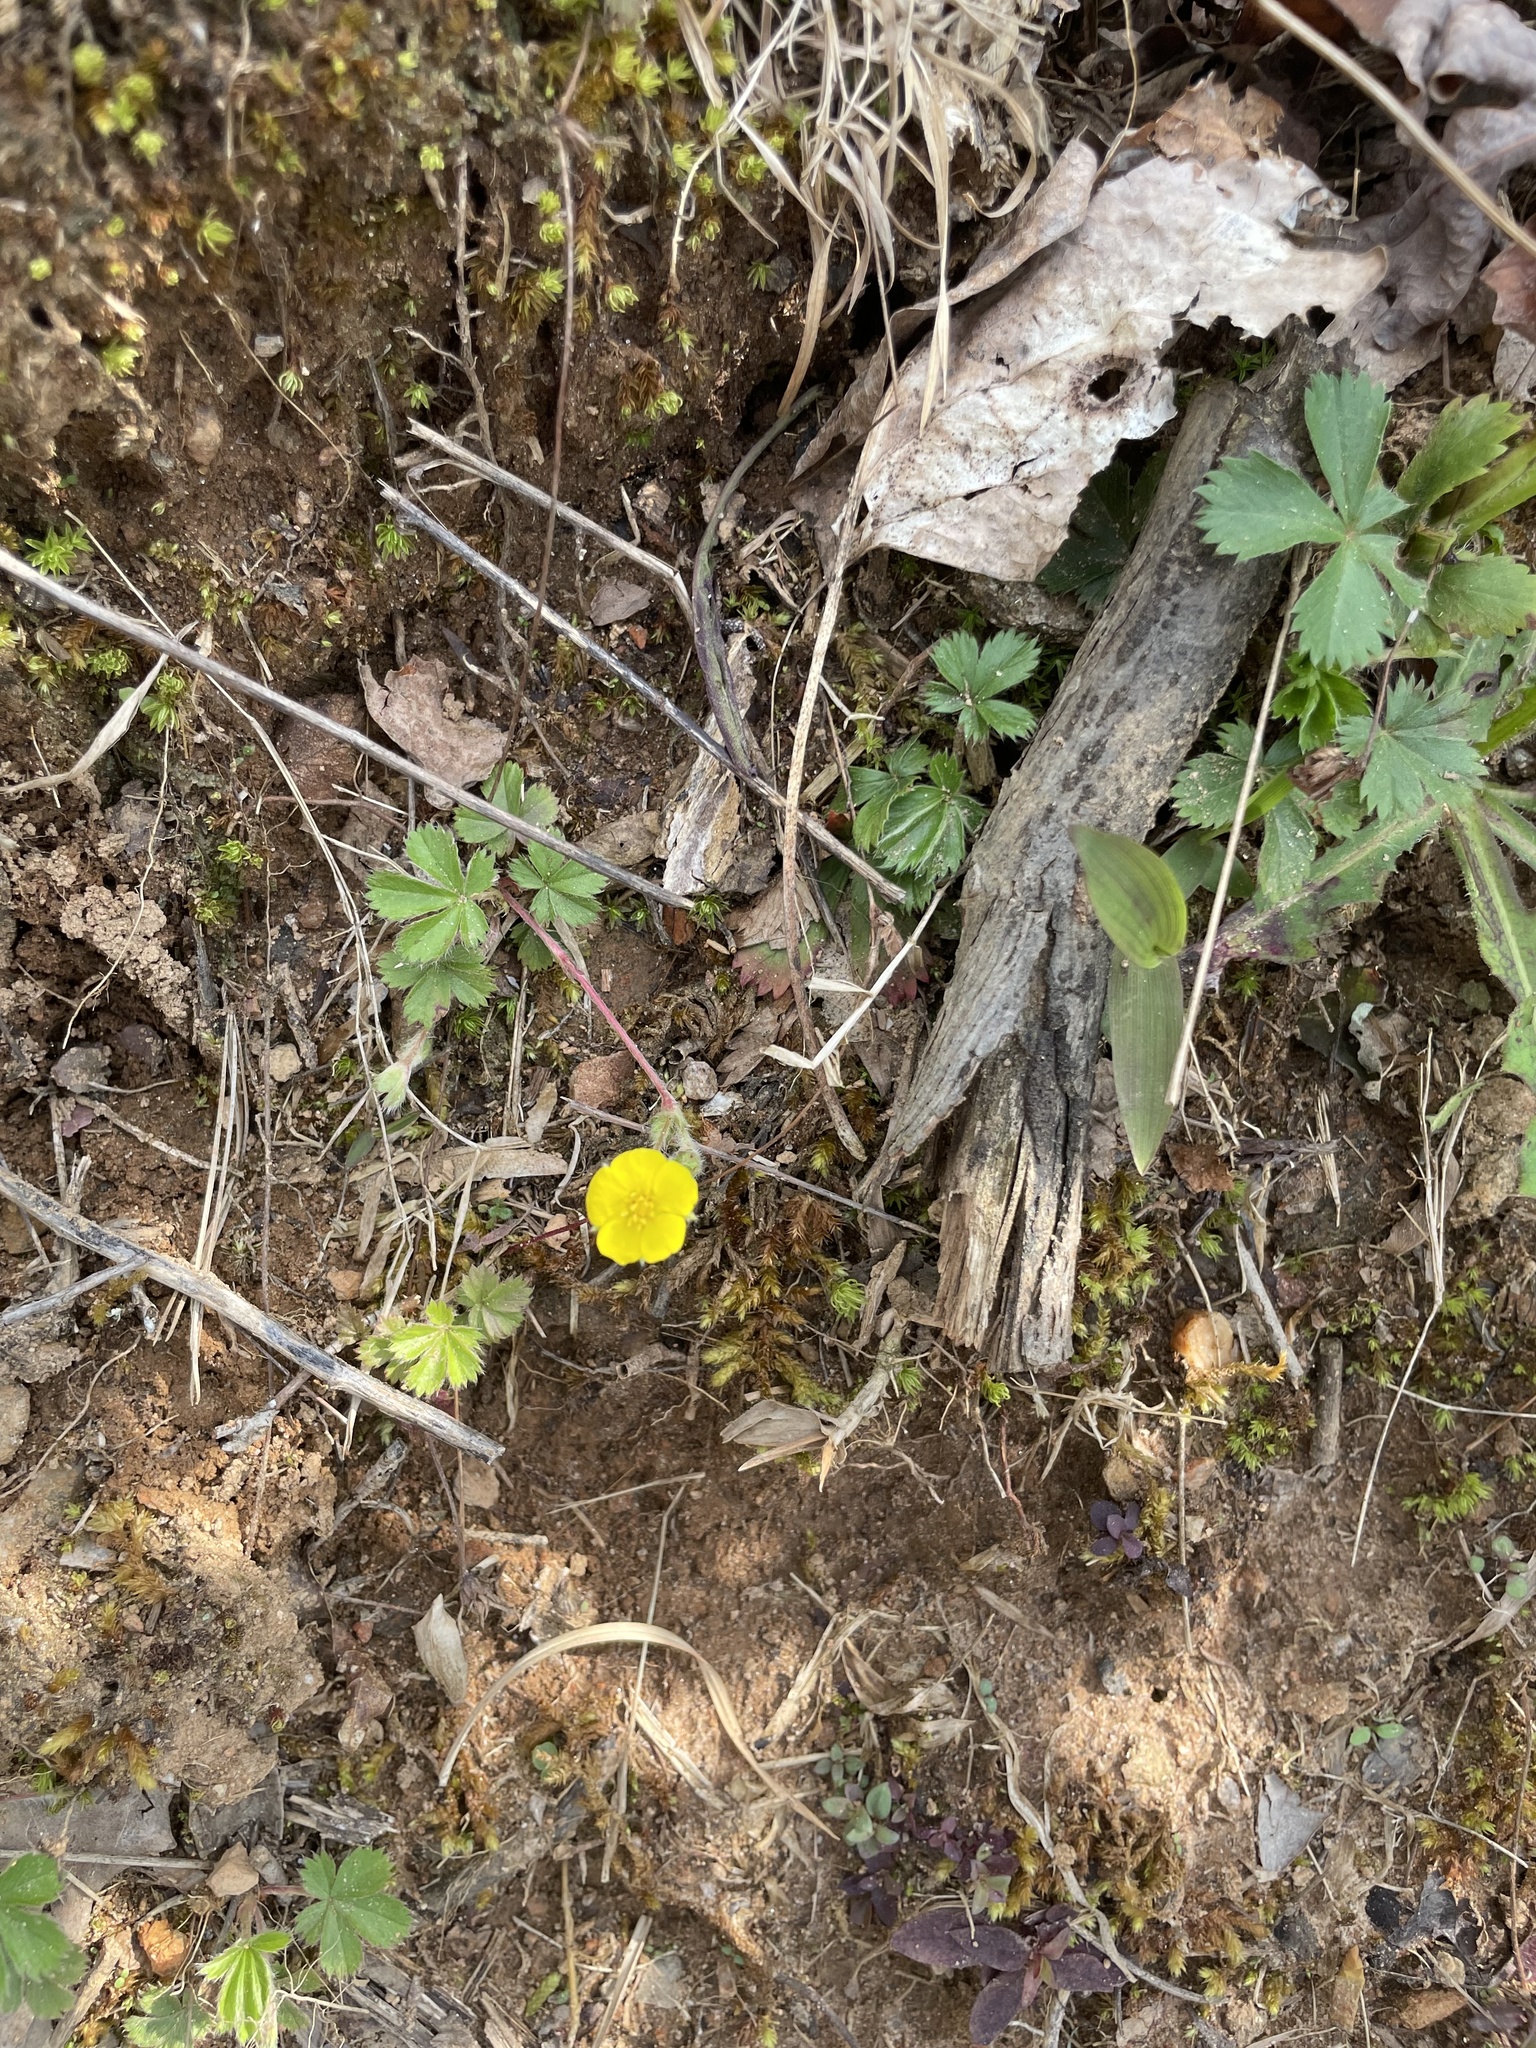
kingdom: Plantae
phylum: Tracheophyta
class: Magnoliopsida
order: Rosales
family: Rosaceae
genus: Potentilla
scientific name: Potentilla canadensis
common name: Canada cinquefoil
